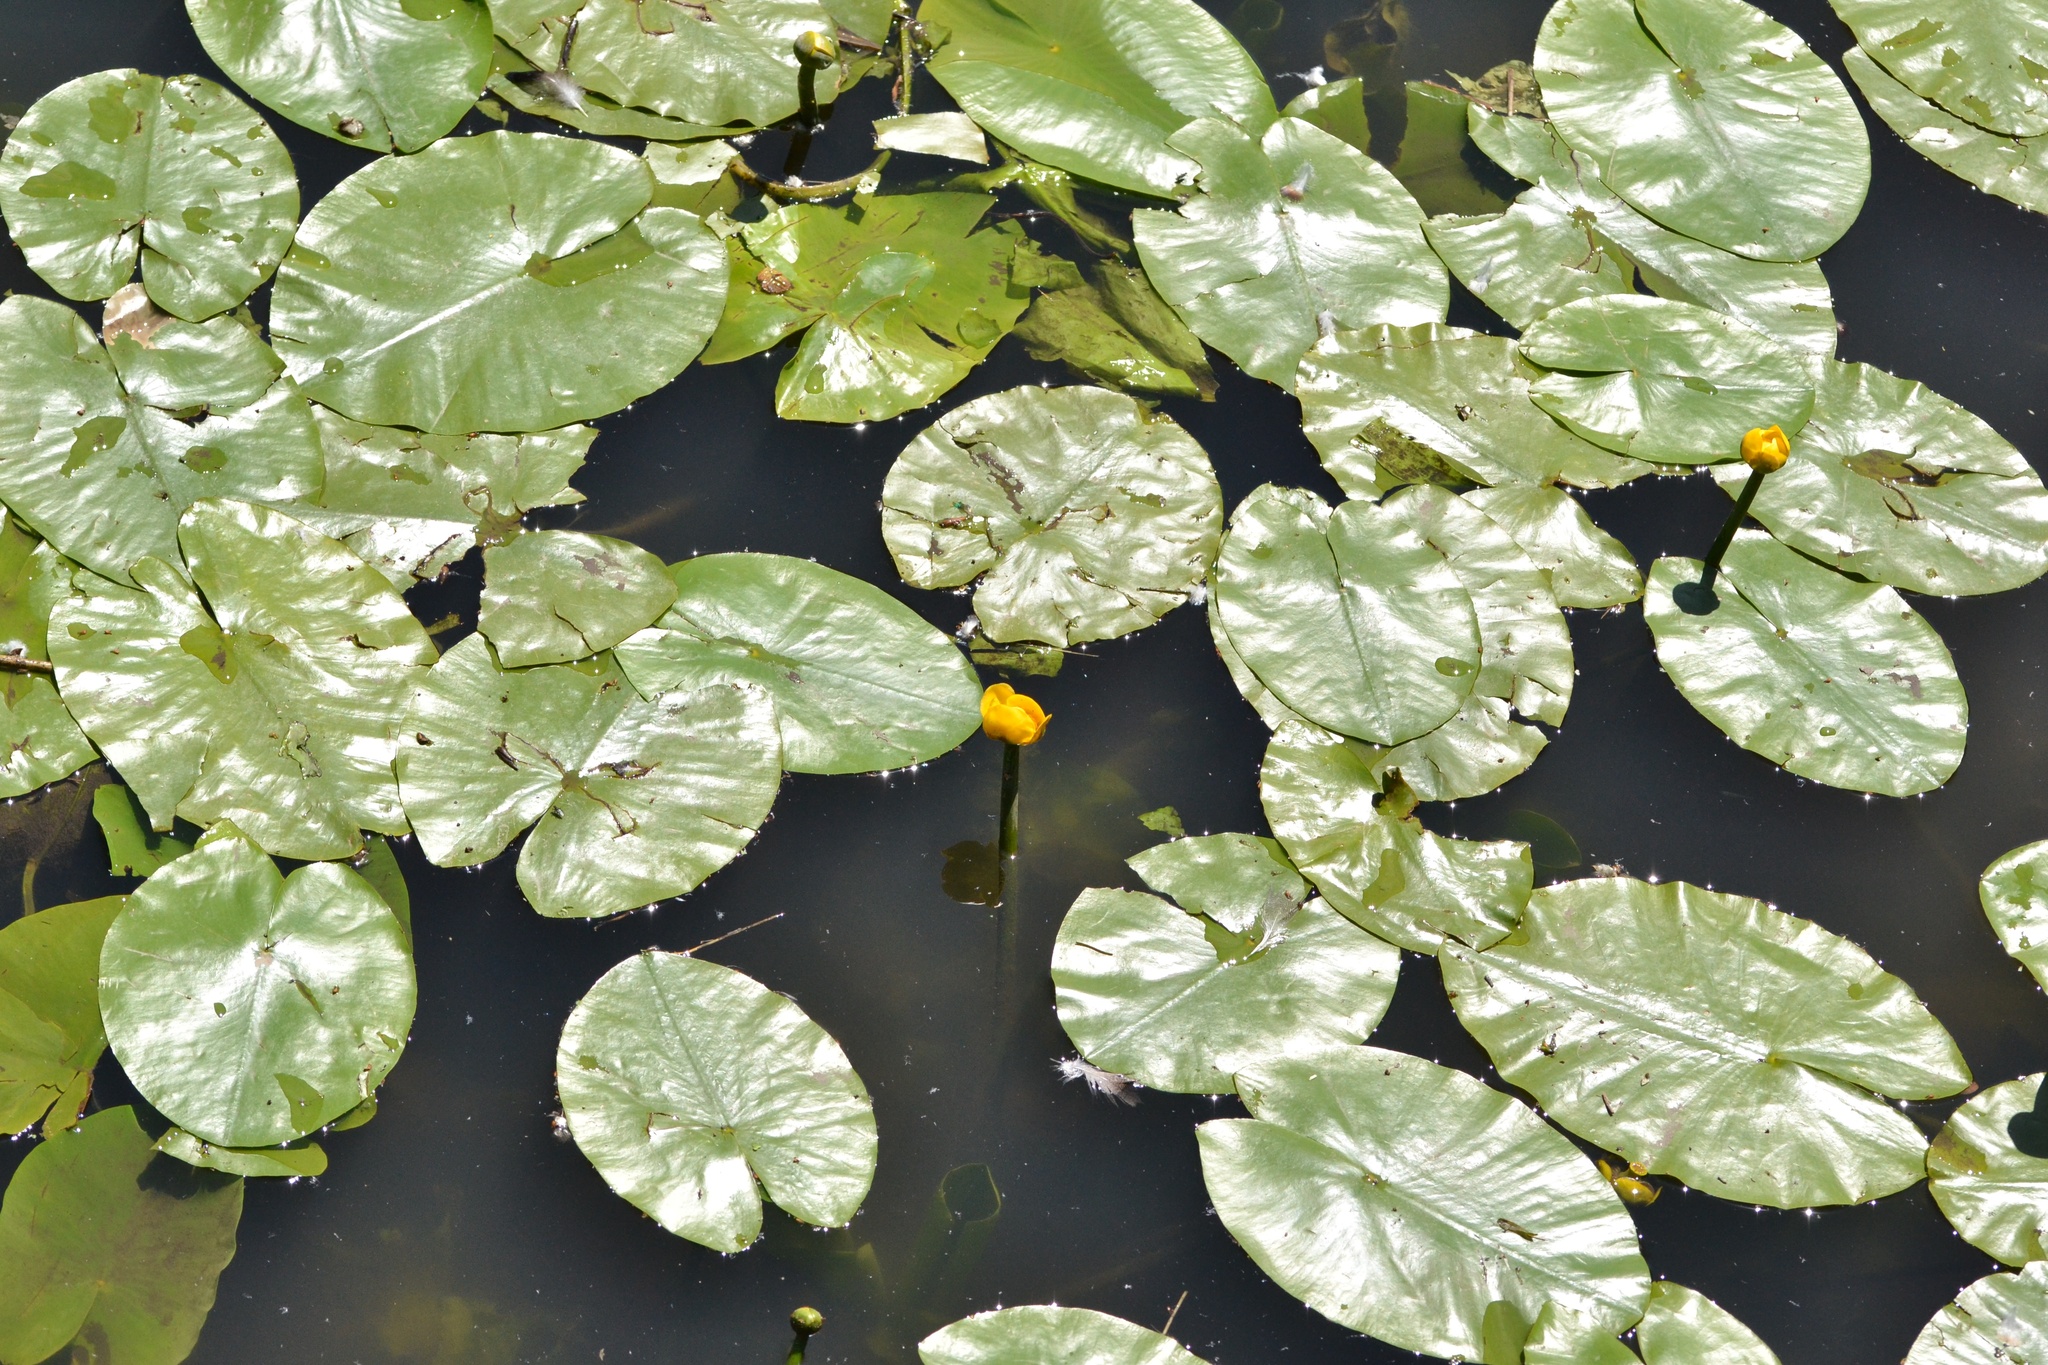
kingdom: Plantae
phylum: Tracheophyta
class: Magnoliopsida
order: Nymphaeales
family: Nymphaeaceae
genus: Nuphar
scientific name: Nuphar lutea
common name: Yellow water-lily
